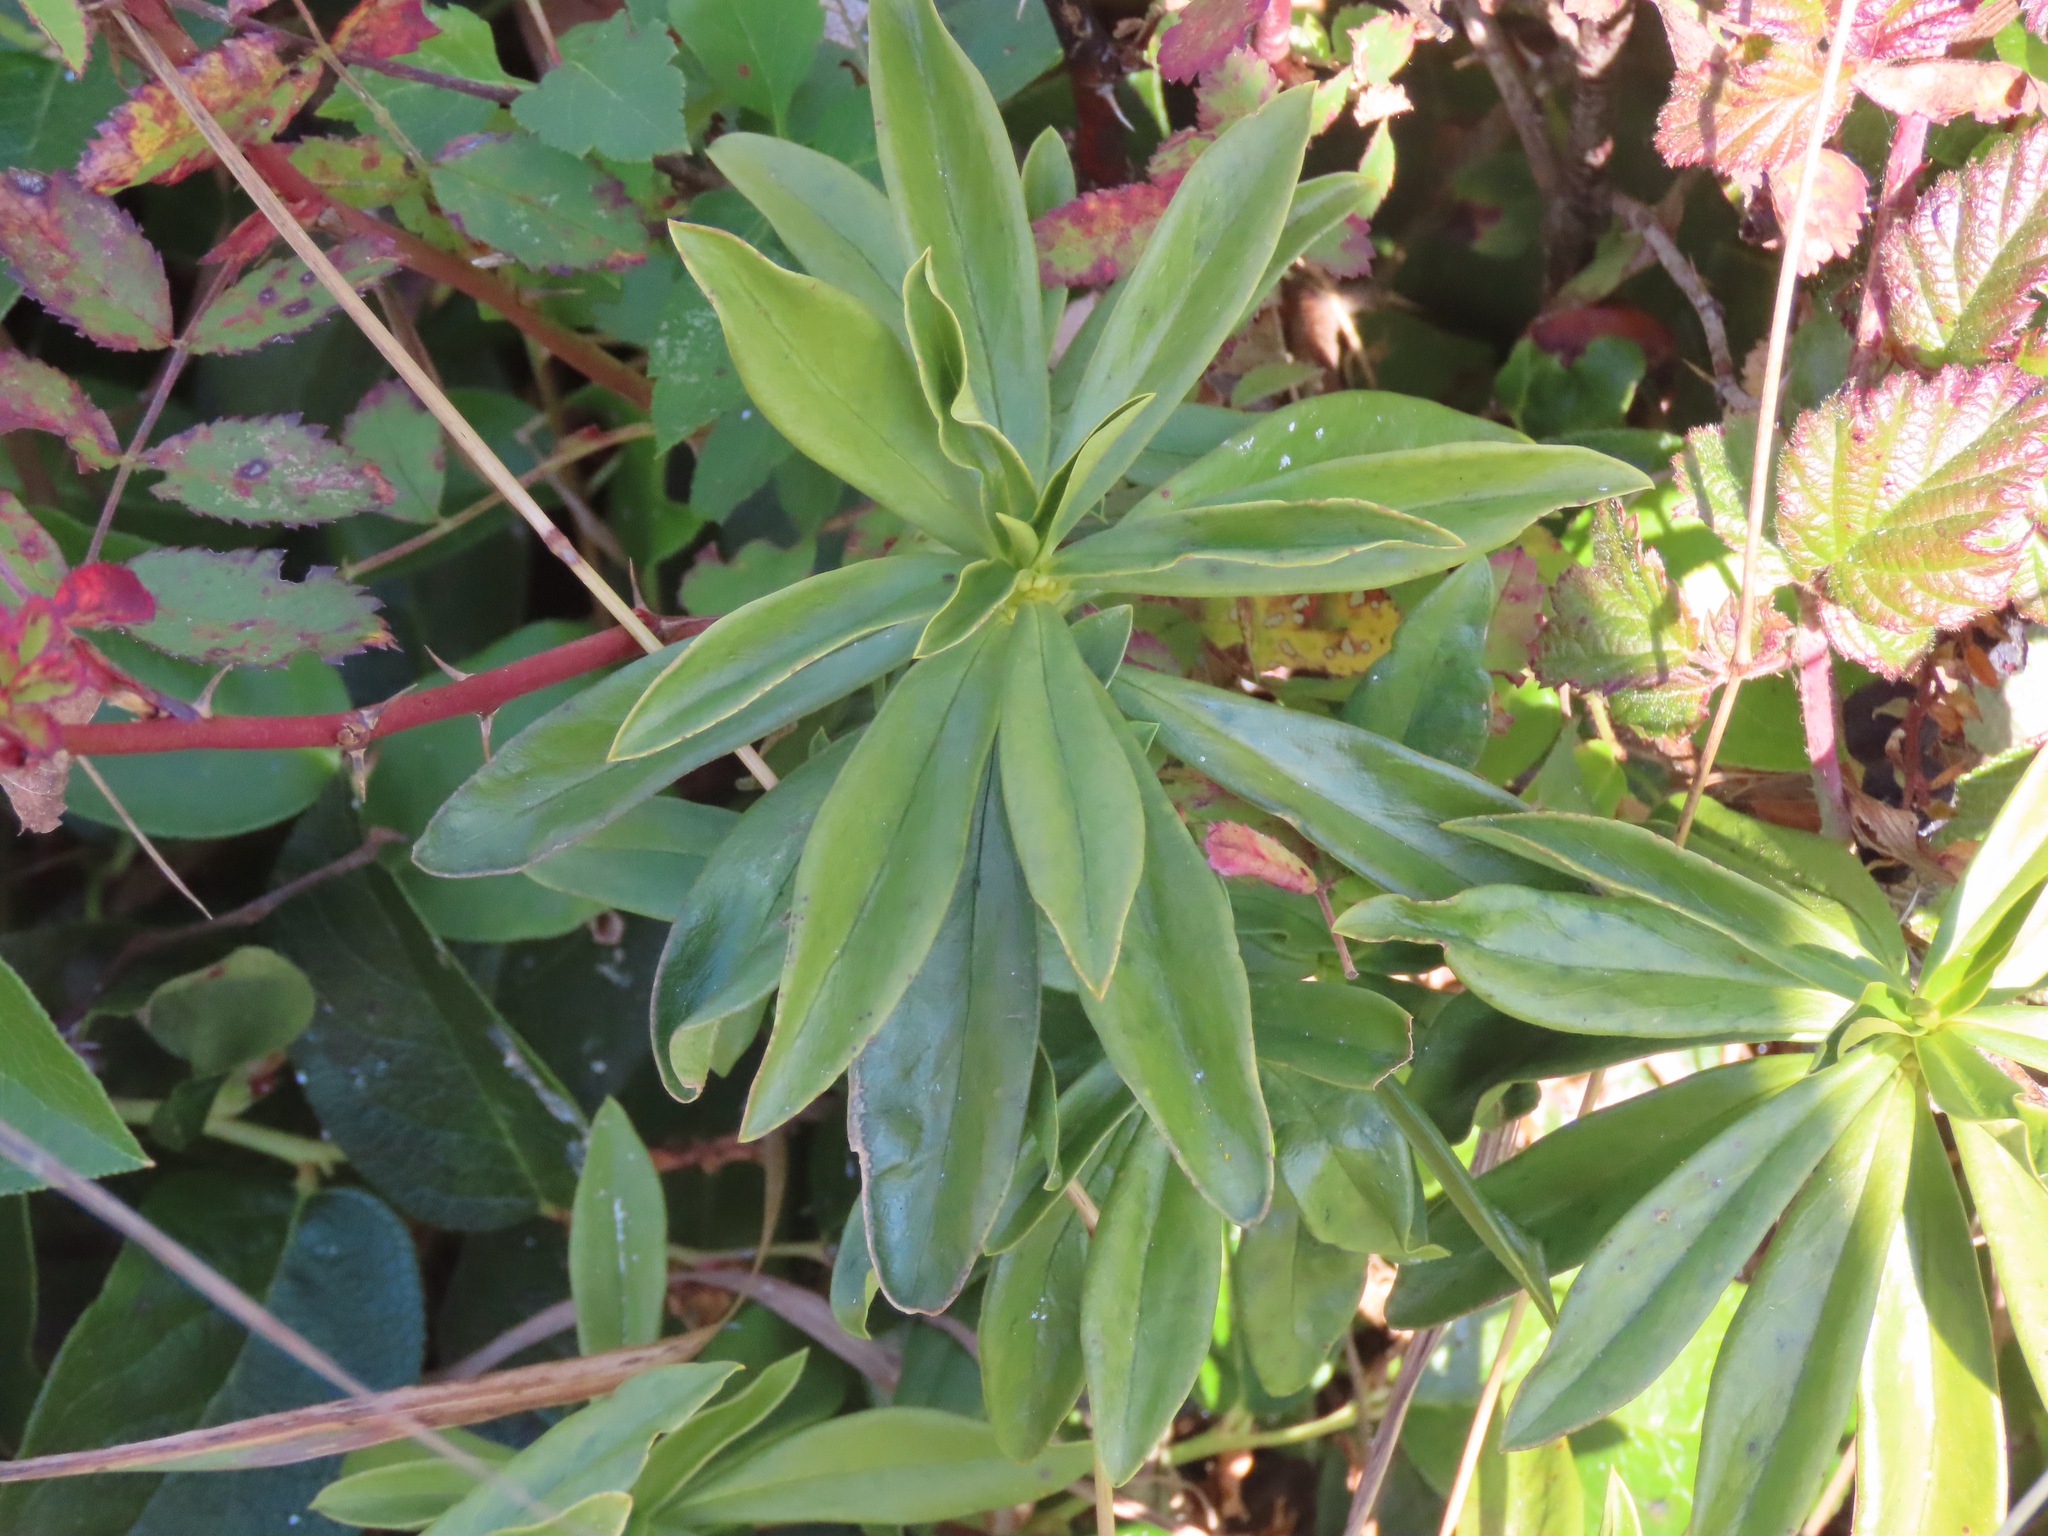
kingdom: Plantae
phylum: Tracheophyta
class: Magnoliopsida
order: Malvales
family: Thymelaeaceae
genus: Daphne
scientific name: Daphne laureola
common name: Spurge-laurel
